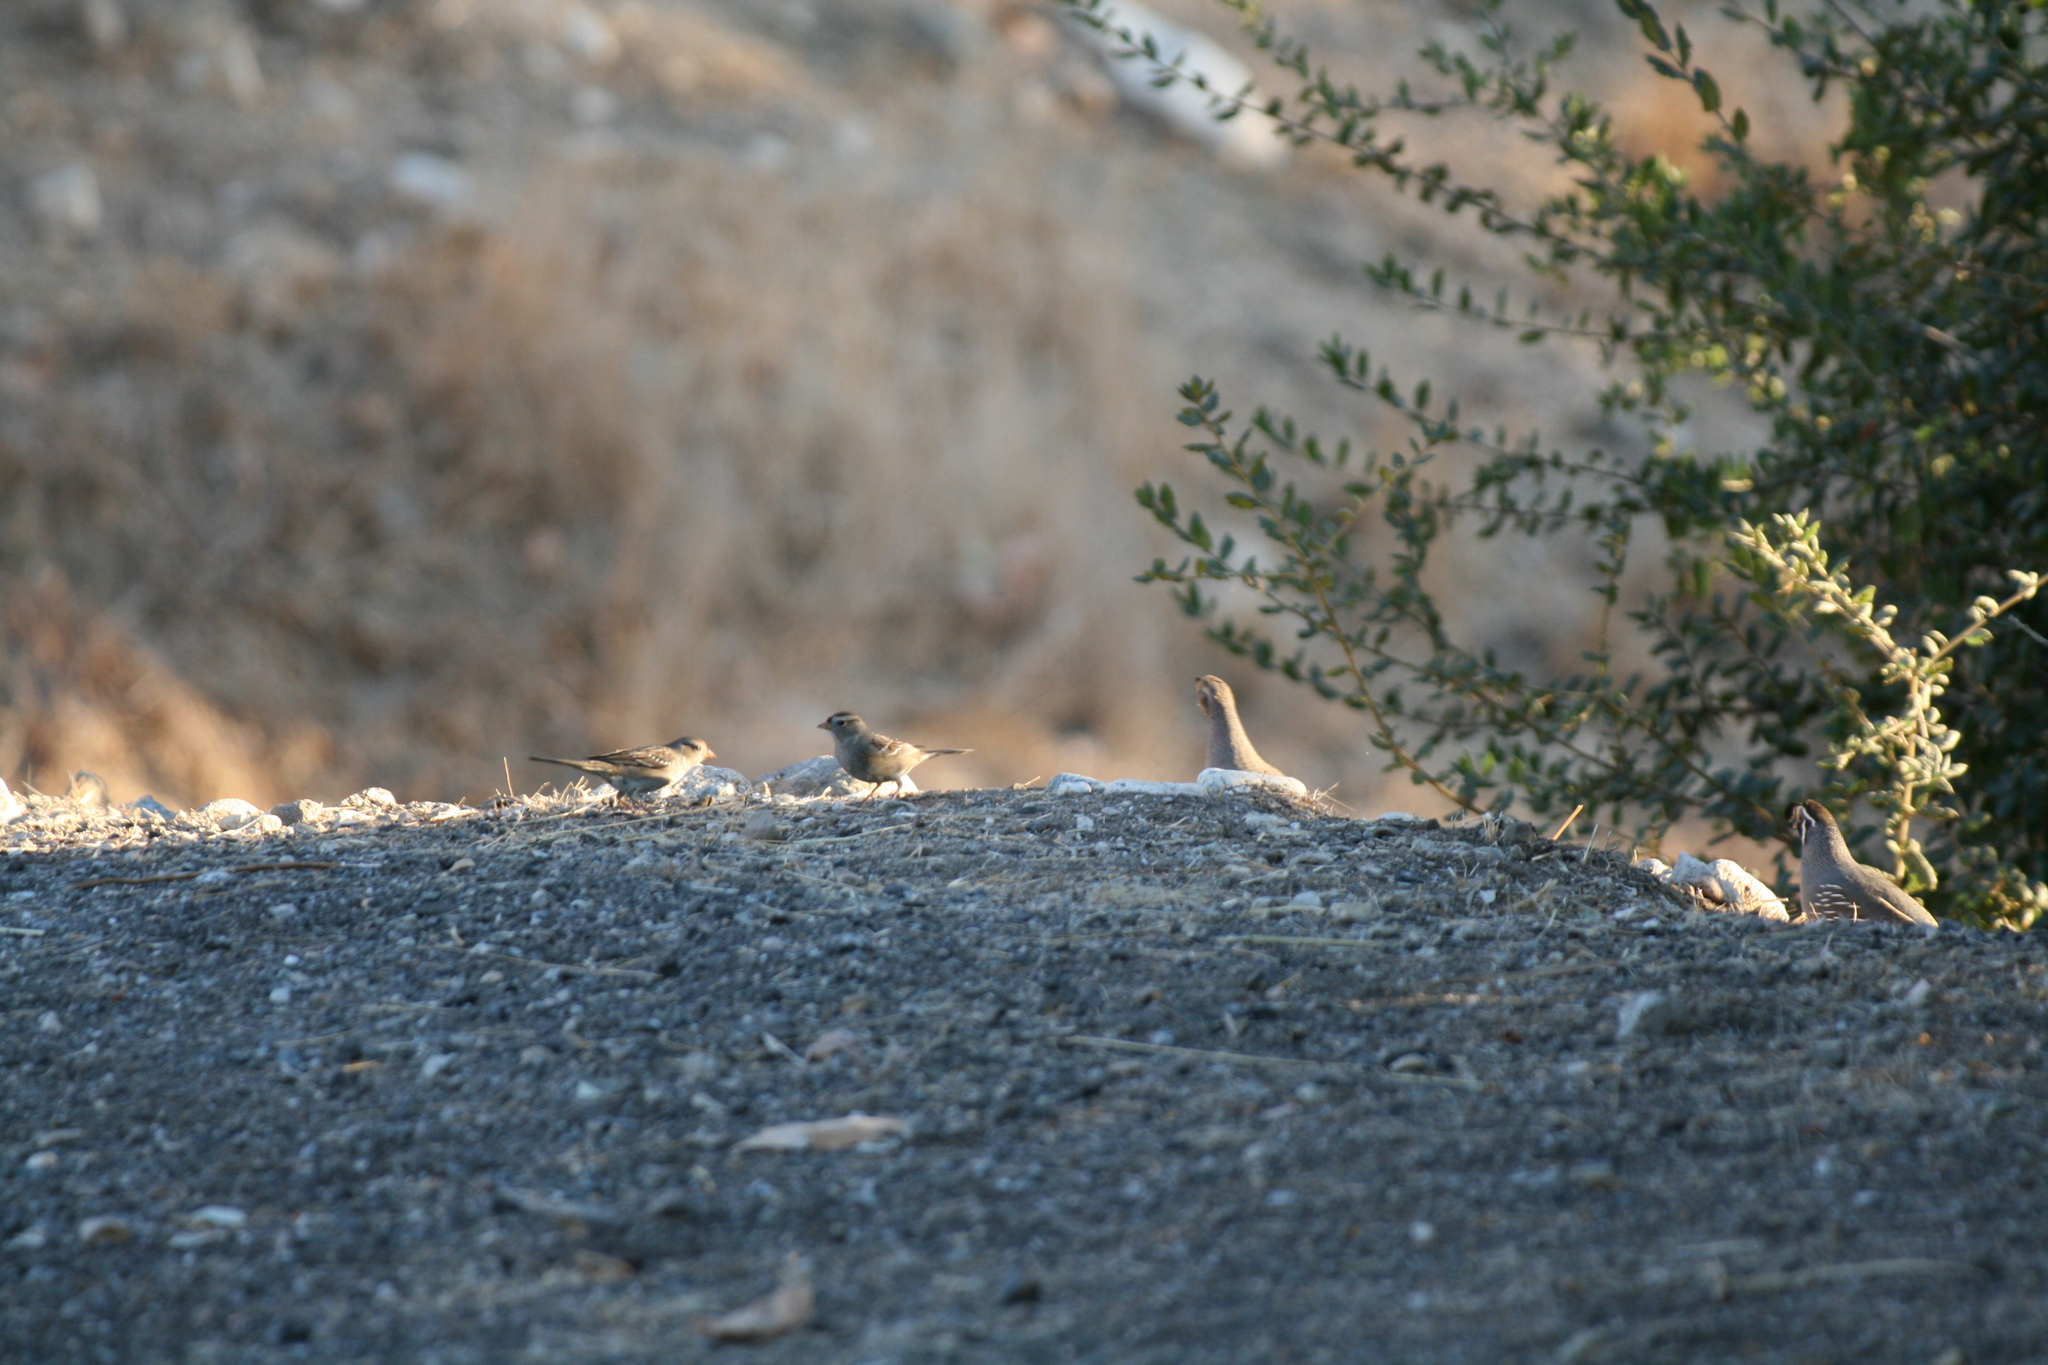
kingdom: Animalia
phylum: Chordata
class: Aves
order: Passeriformes
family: Passerellidae
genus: Zonotrichia
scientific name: Zonotrichia leucophrys
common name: White-crowned sparrow
